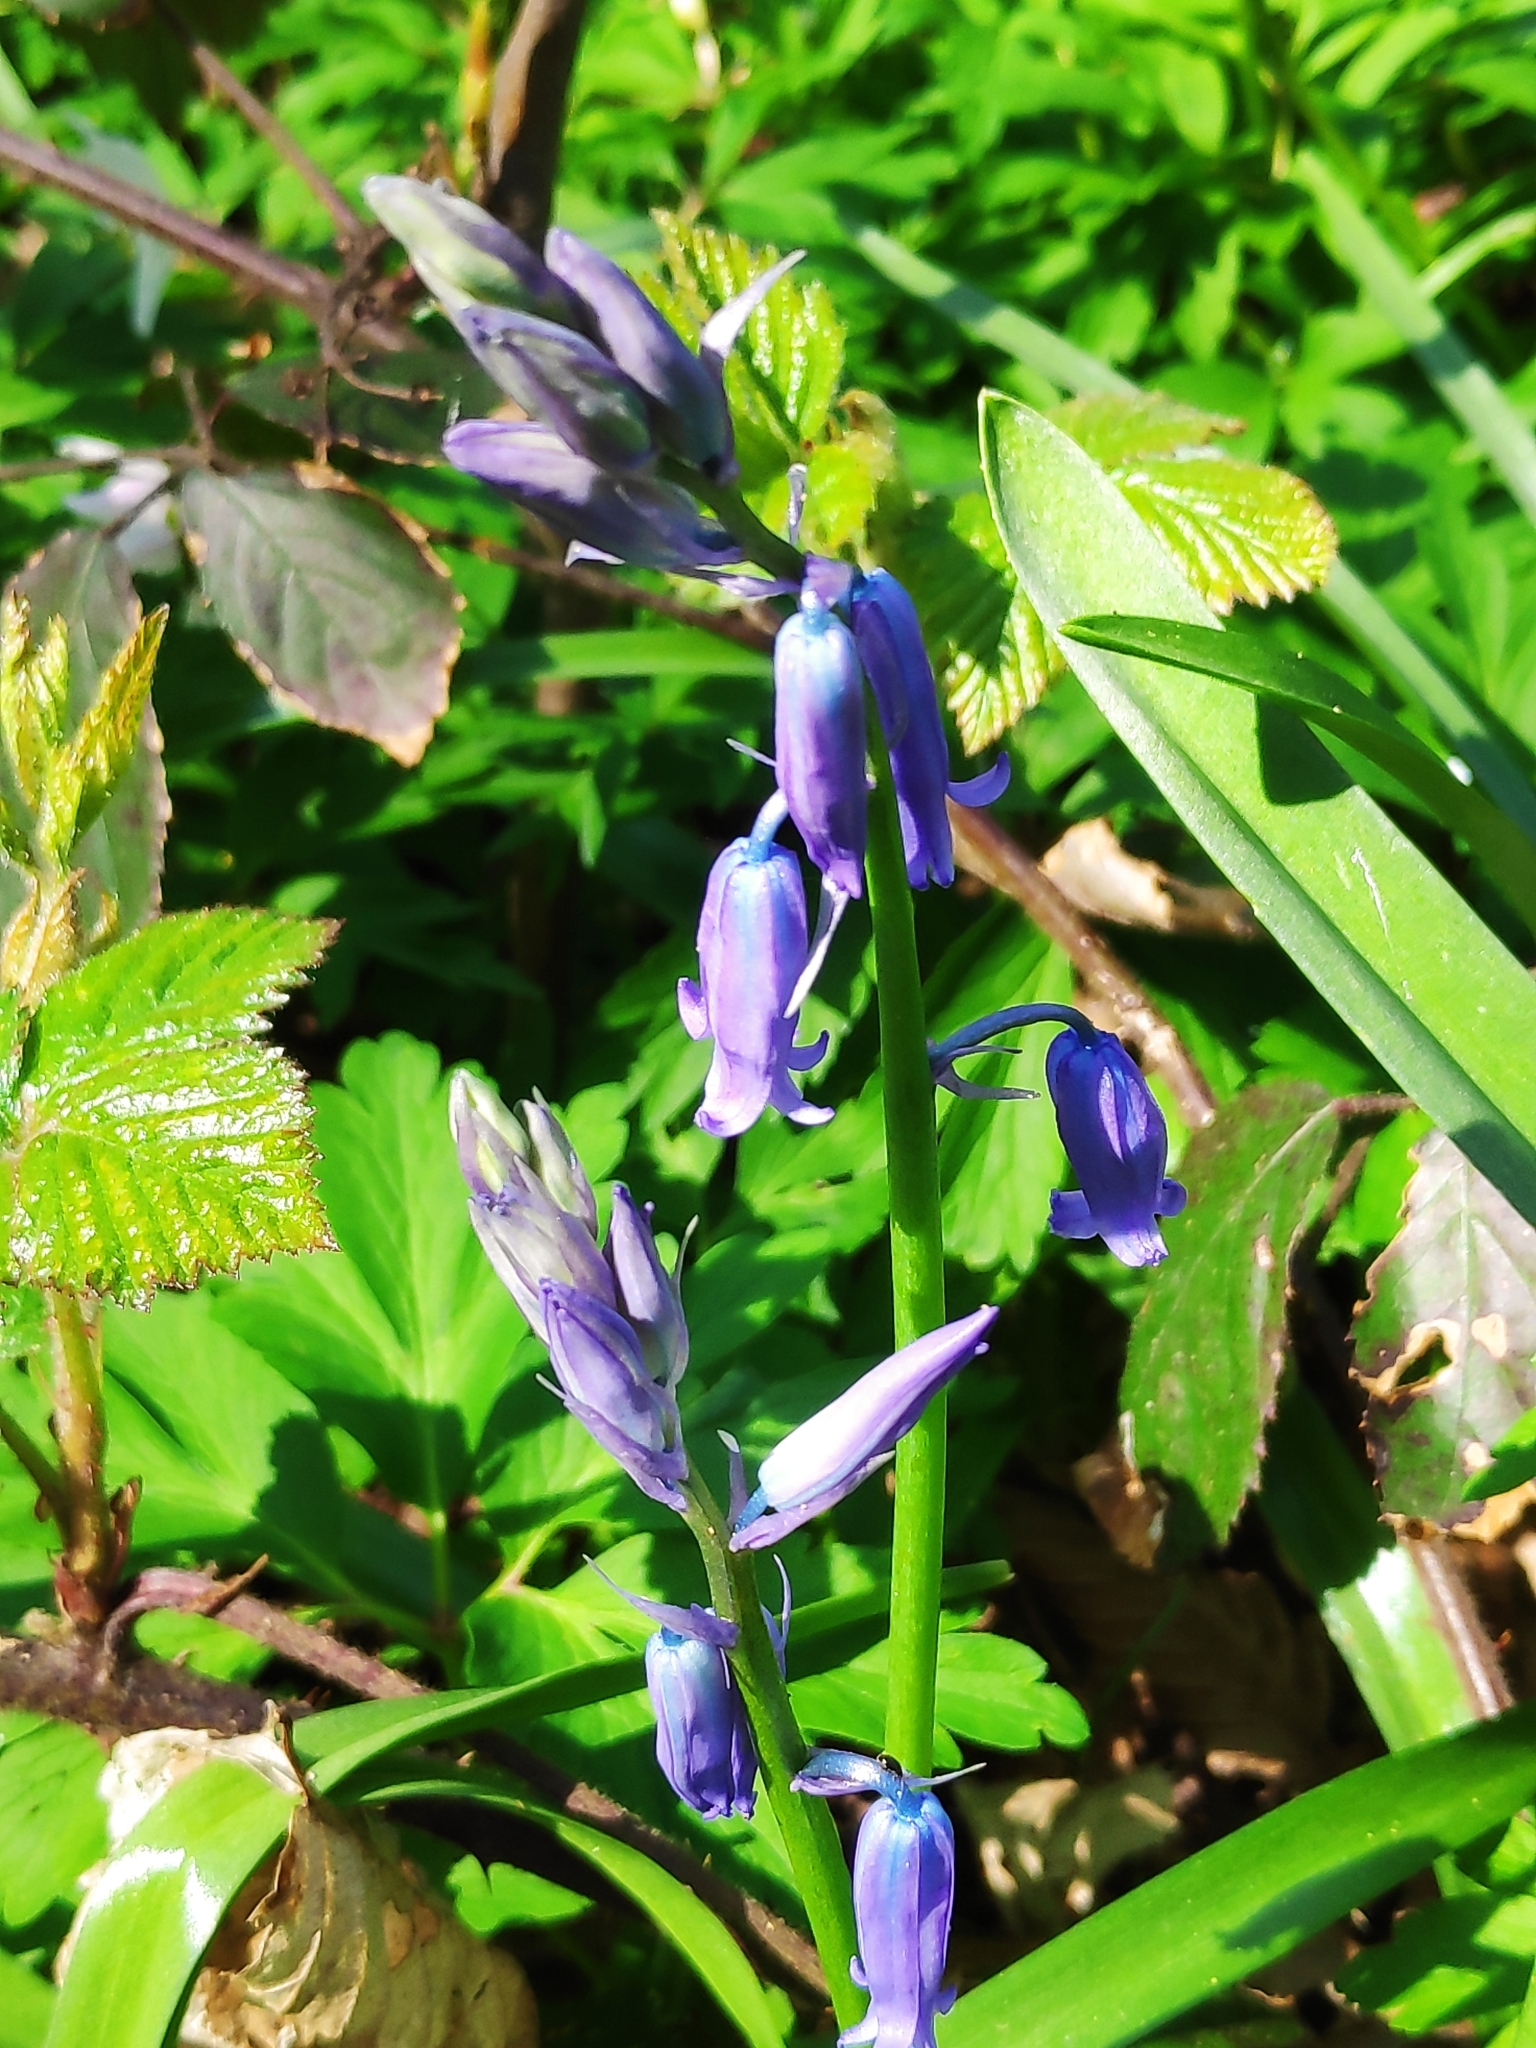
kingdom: Plantae
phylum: Tracheophyta
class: Liliopsida
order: Asparagales
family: Asparagaceae
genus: Hyacinthoides
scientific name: Hyacinthoides non-scripta
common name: Bluebell
